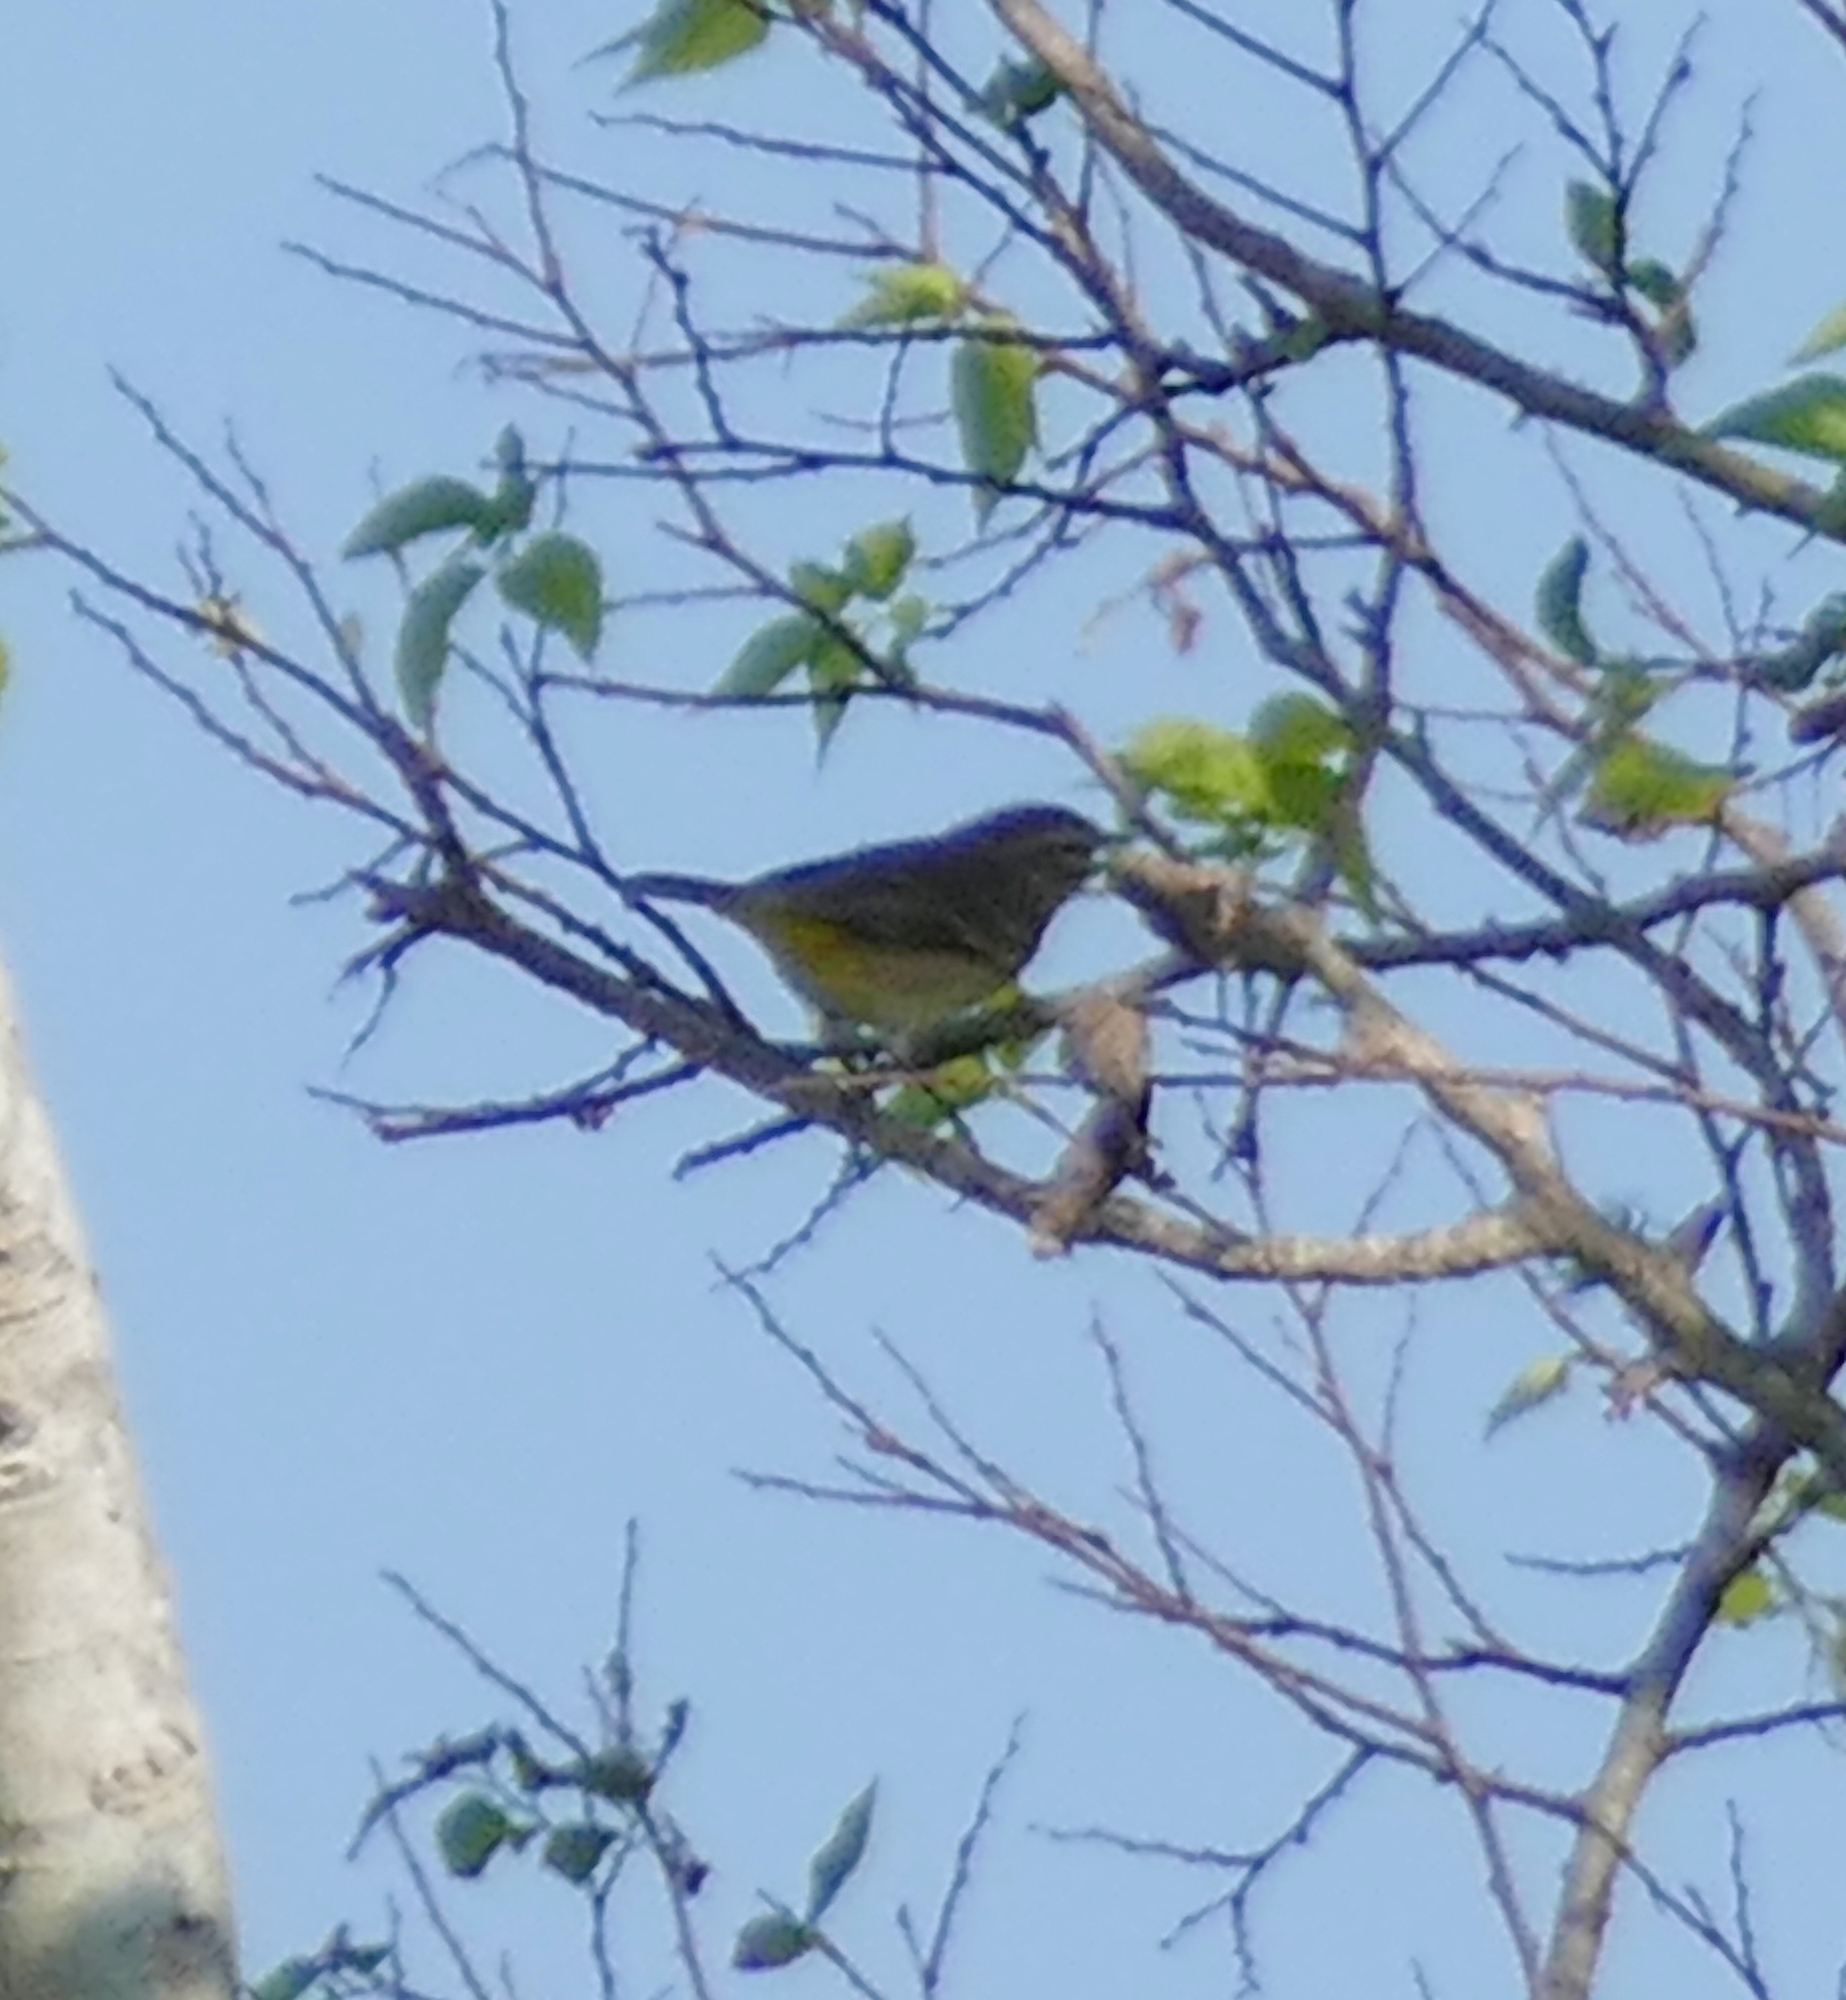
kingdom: Animalia
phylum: Chordata
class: Aves
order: Passeriformes
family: Parulidae
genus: Setophaga
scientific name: Setophaga palmarum
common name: Palm warbler
